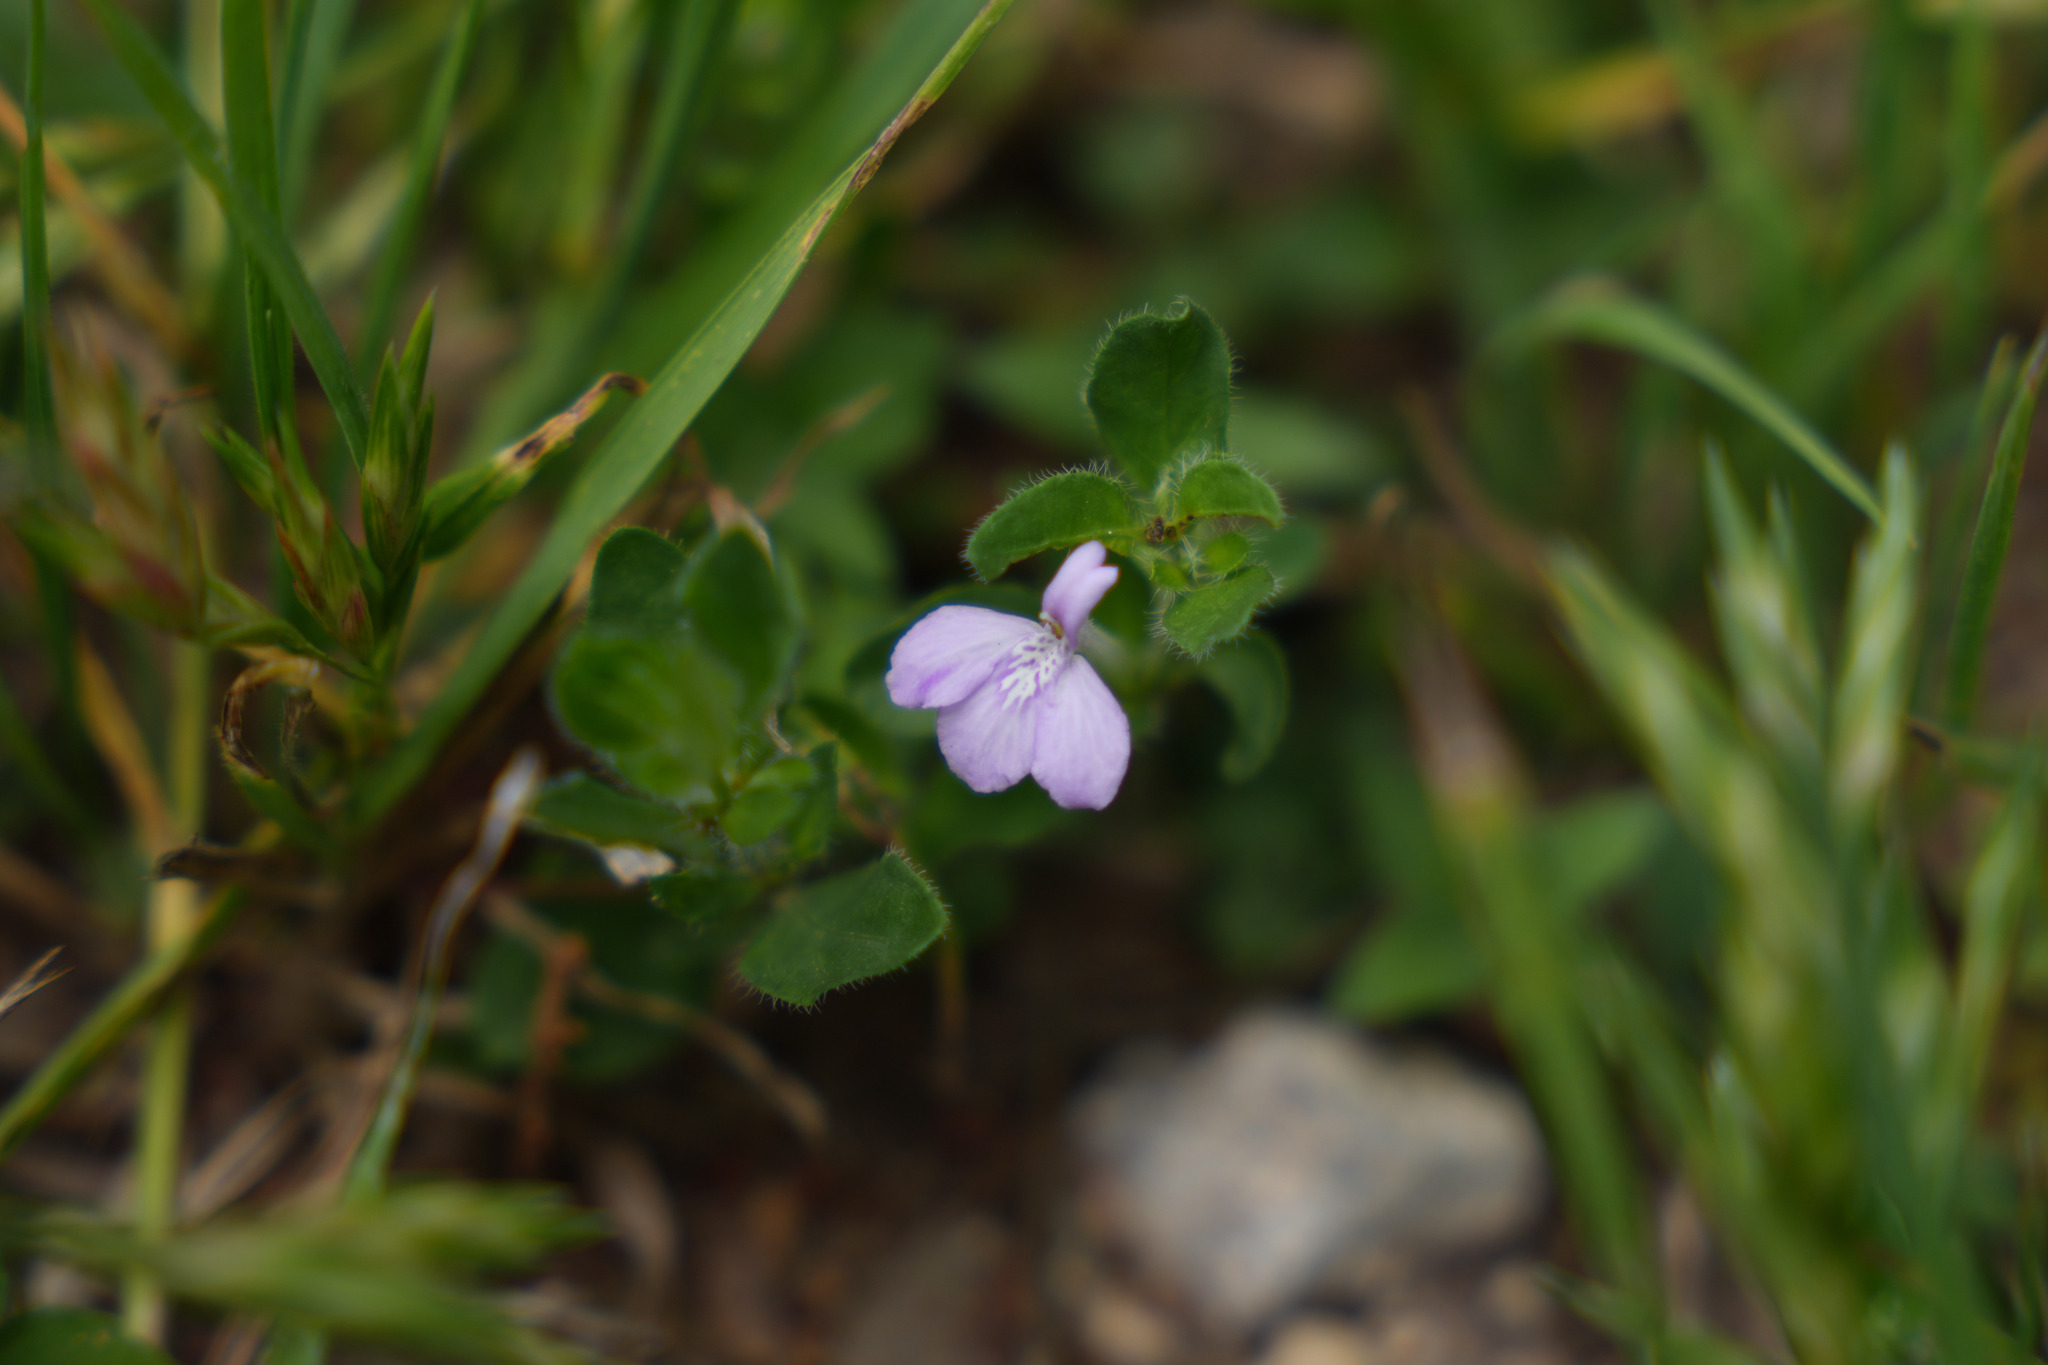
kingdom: Plantae
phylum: Tracheophyta
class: Magnoliopsida
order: Lamiales
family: Acanthaceae
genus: Justicia
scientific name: Justicia pilosella
